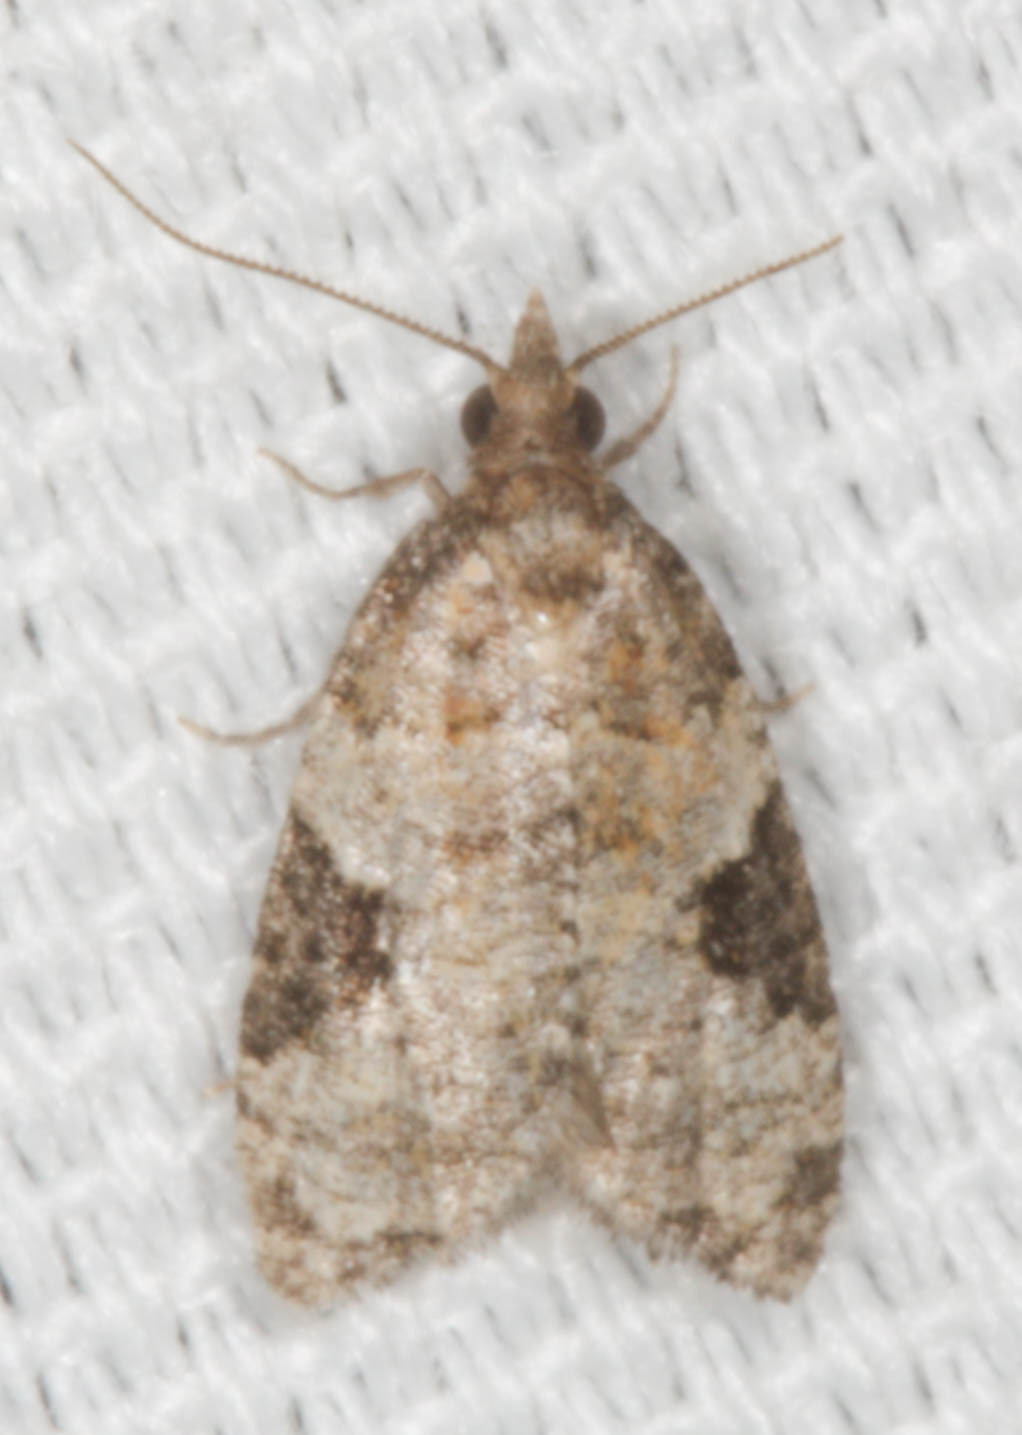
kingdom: Animalia
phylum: Arthropoda
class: Insecta
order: Lepidoptera
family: Tortricidae
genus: Anopina
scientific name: Anopina triangulana
